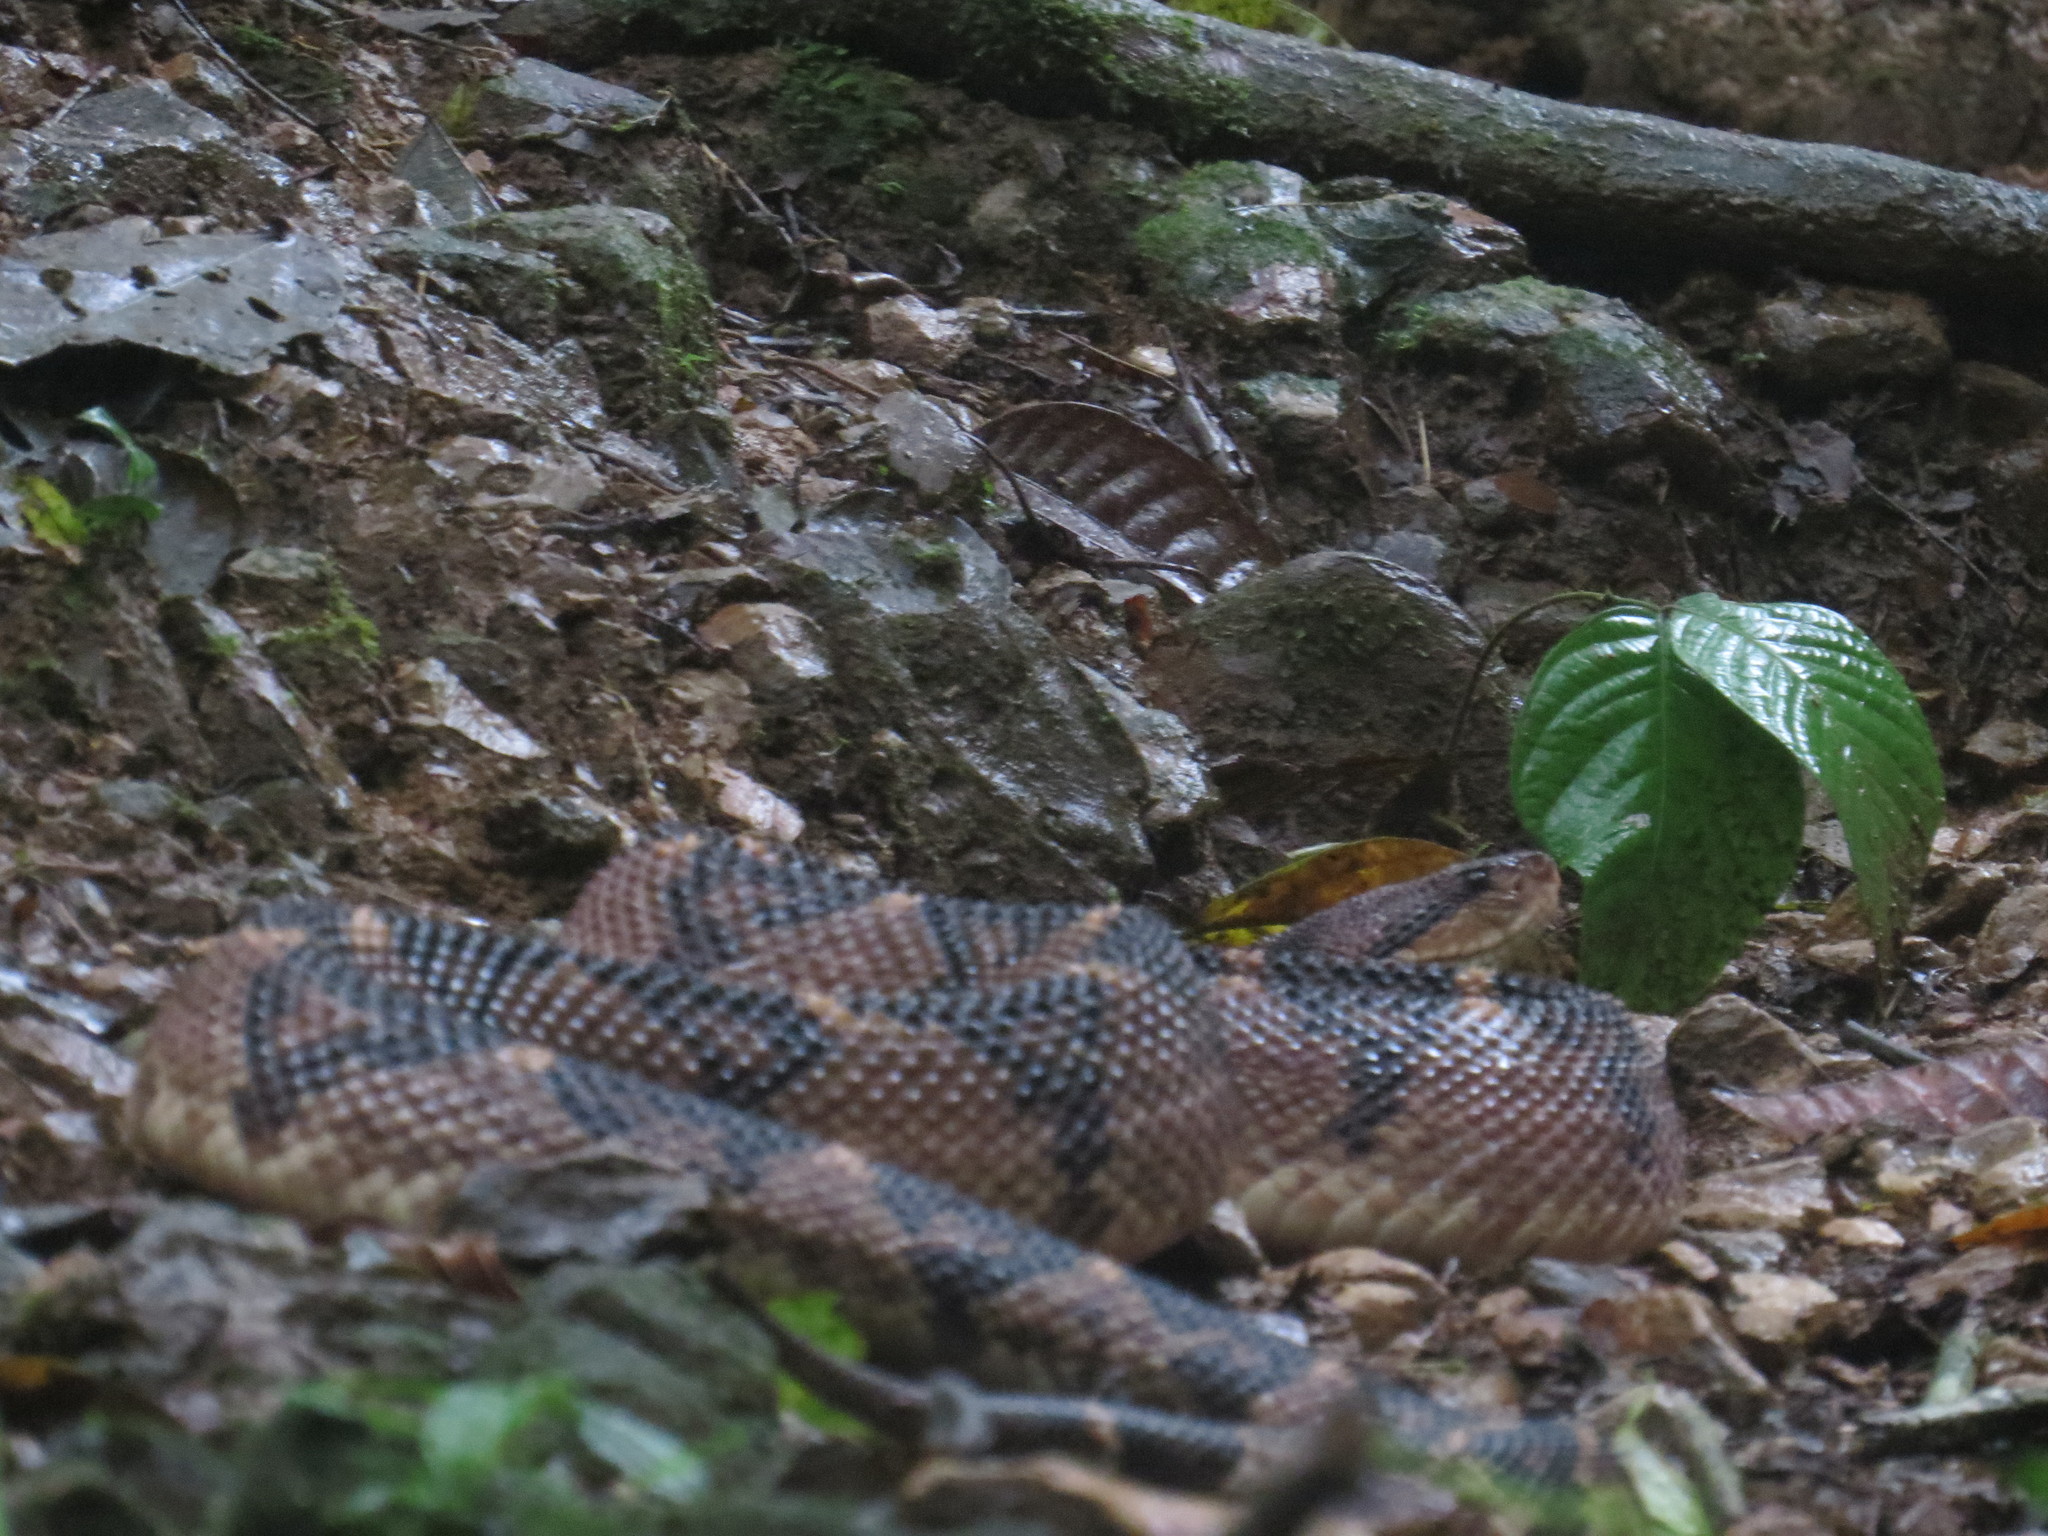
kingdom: Animalia
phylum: Chordata
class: Squamata
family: Viperidae
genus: Lachesis
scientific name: Lachesis acrochorda
